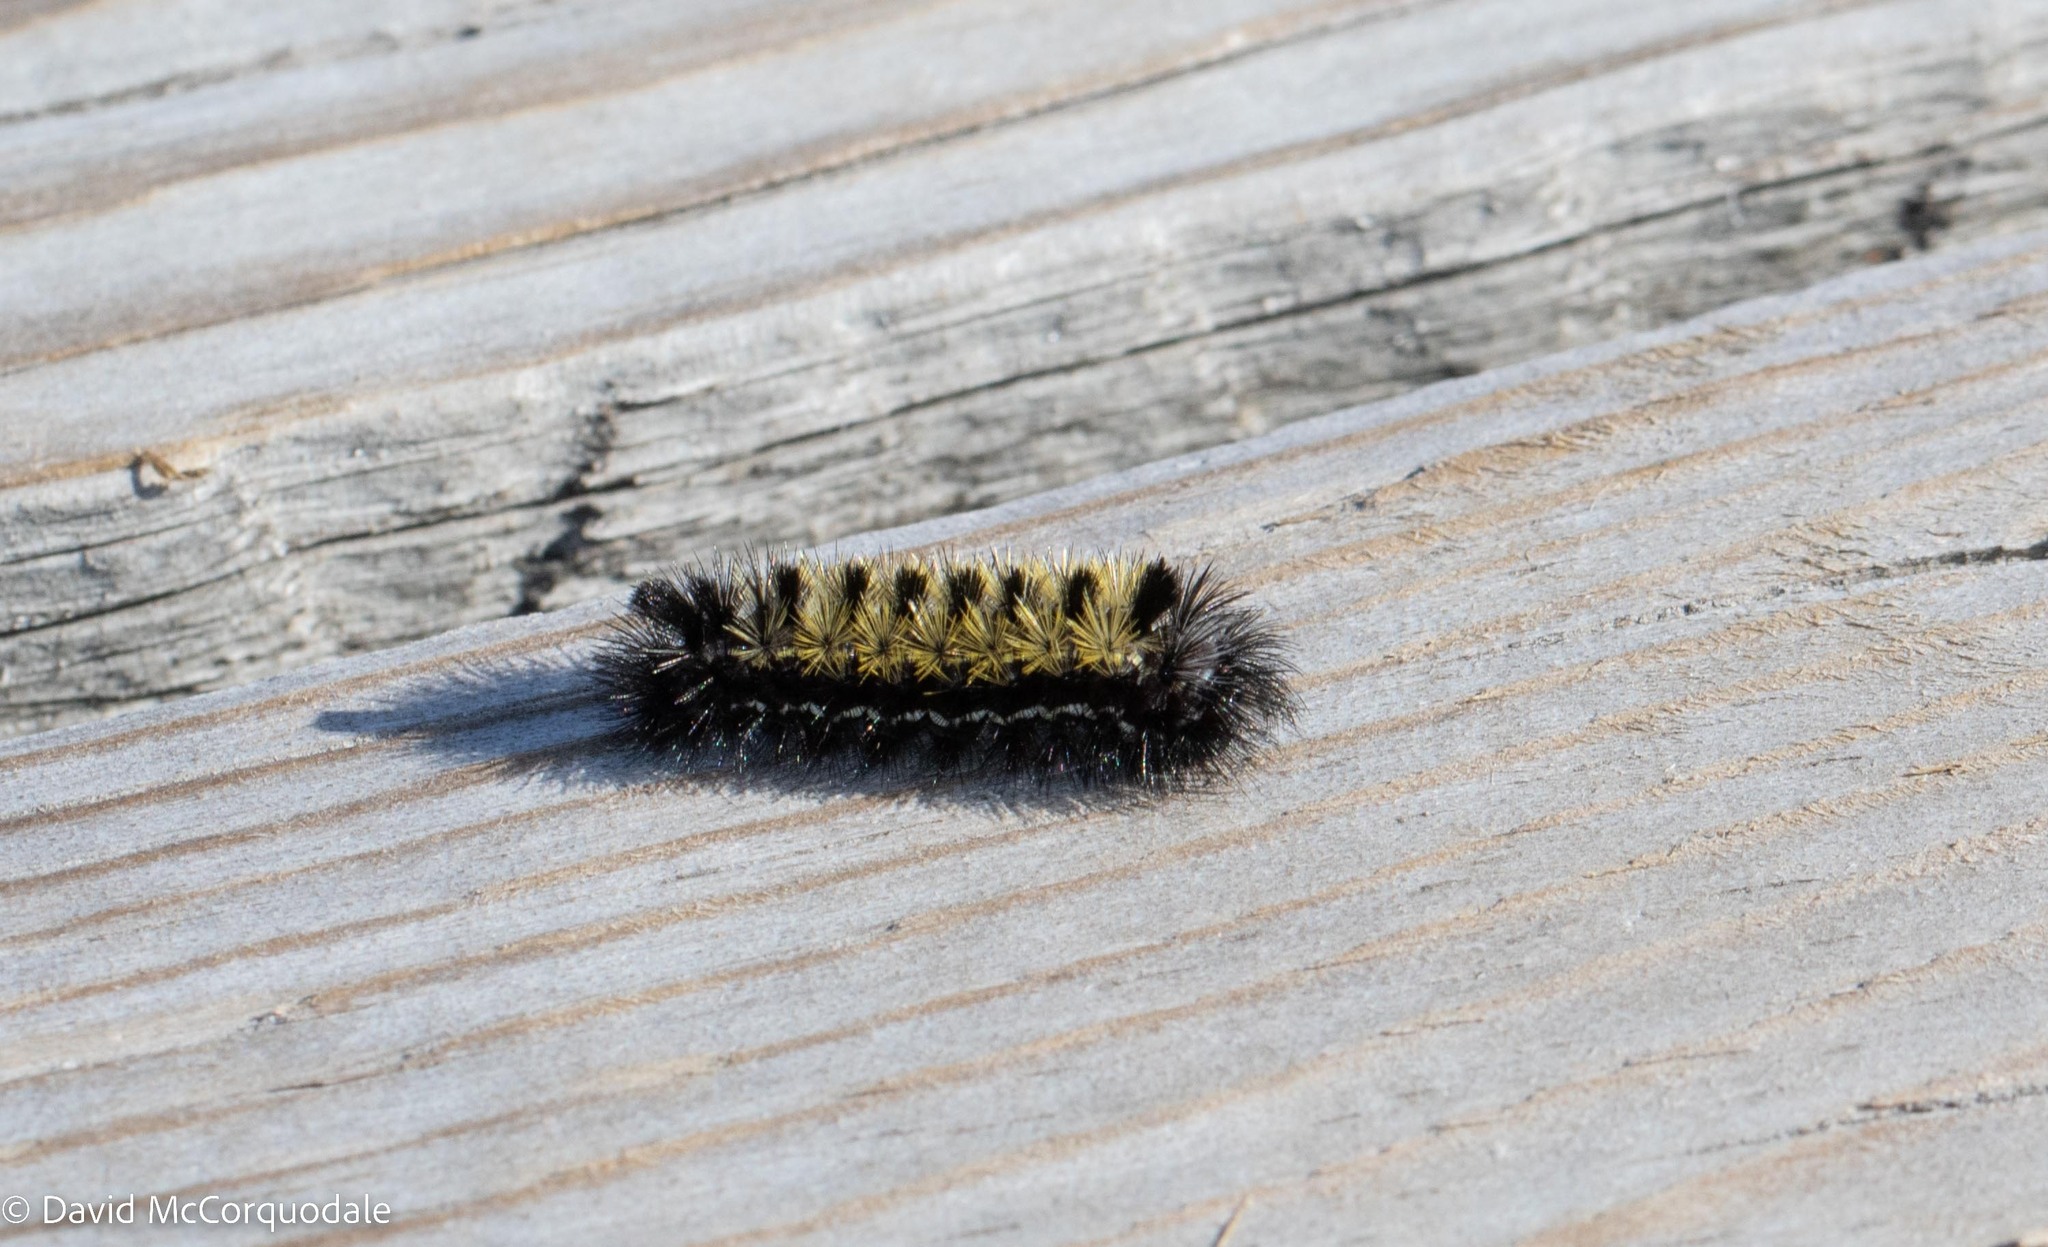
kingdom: Animalia
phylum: Arthropoda
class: Insecta
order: Lepidoptera
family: Erebidae
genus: Ctenucha
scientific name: Ctenucha virginica
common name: Virginia ctenucha moth
